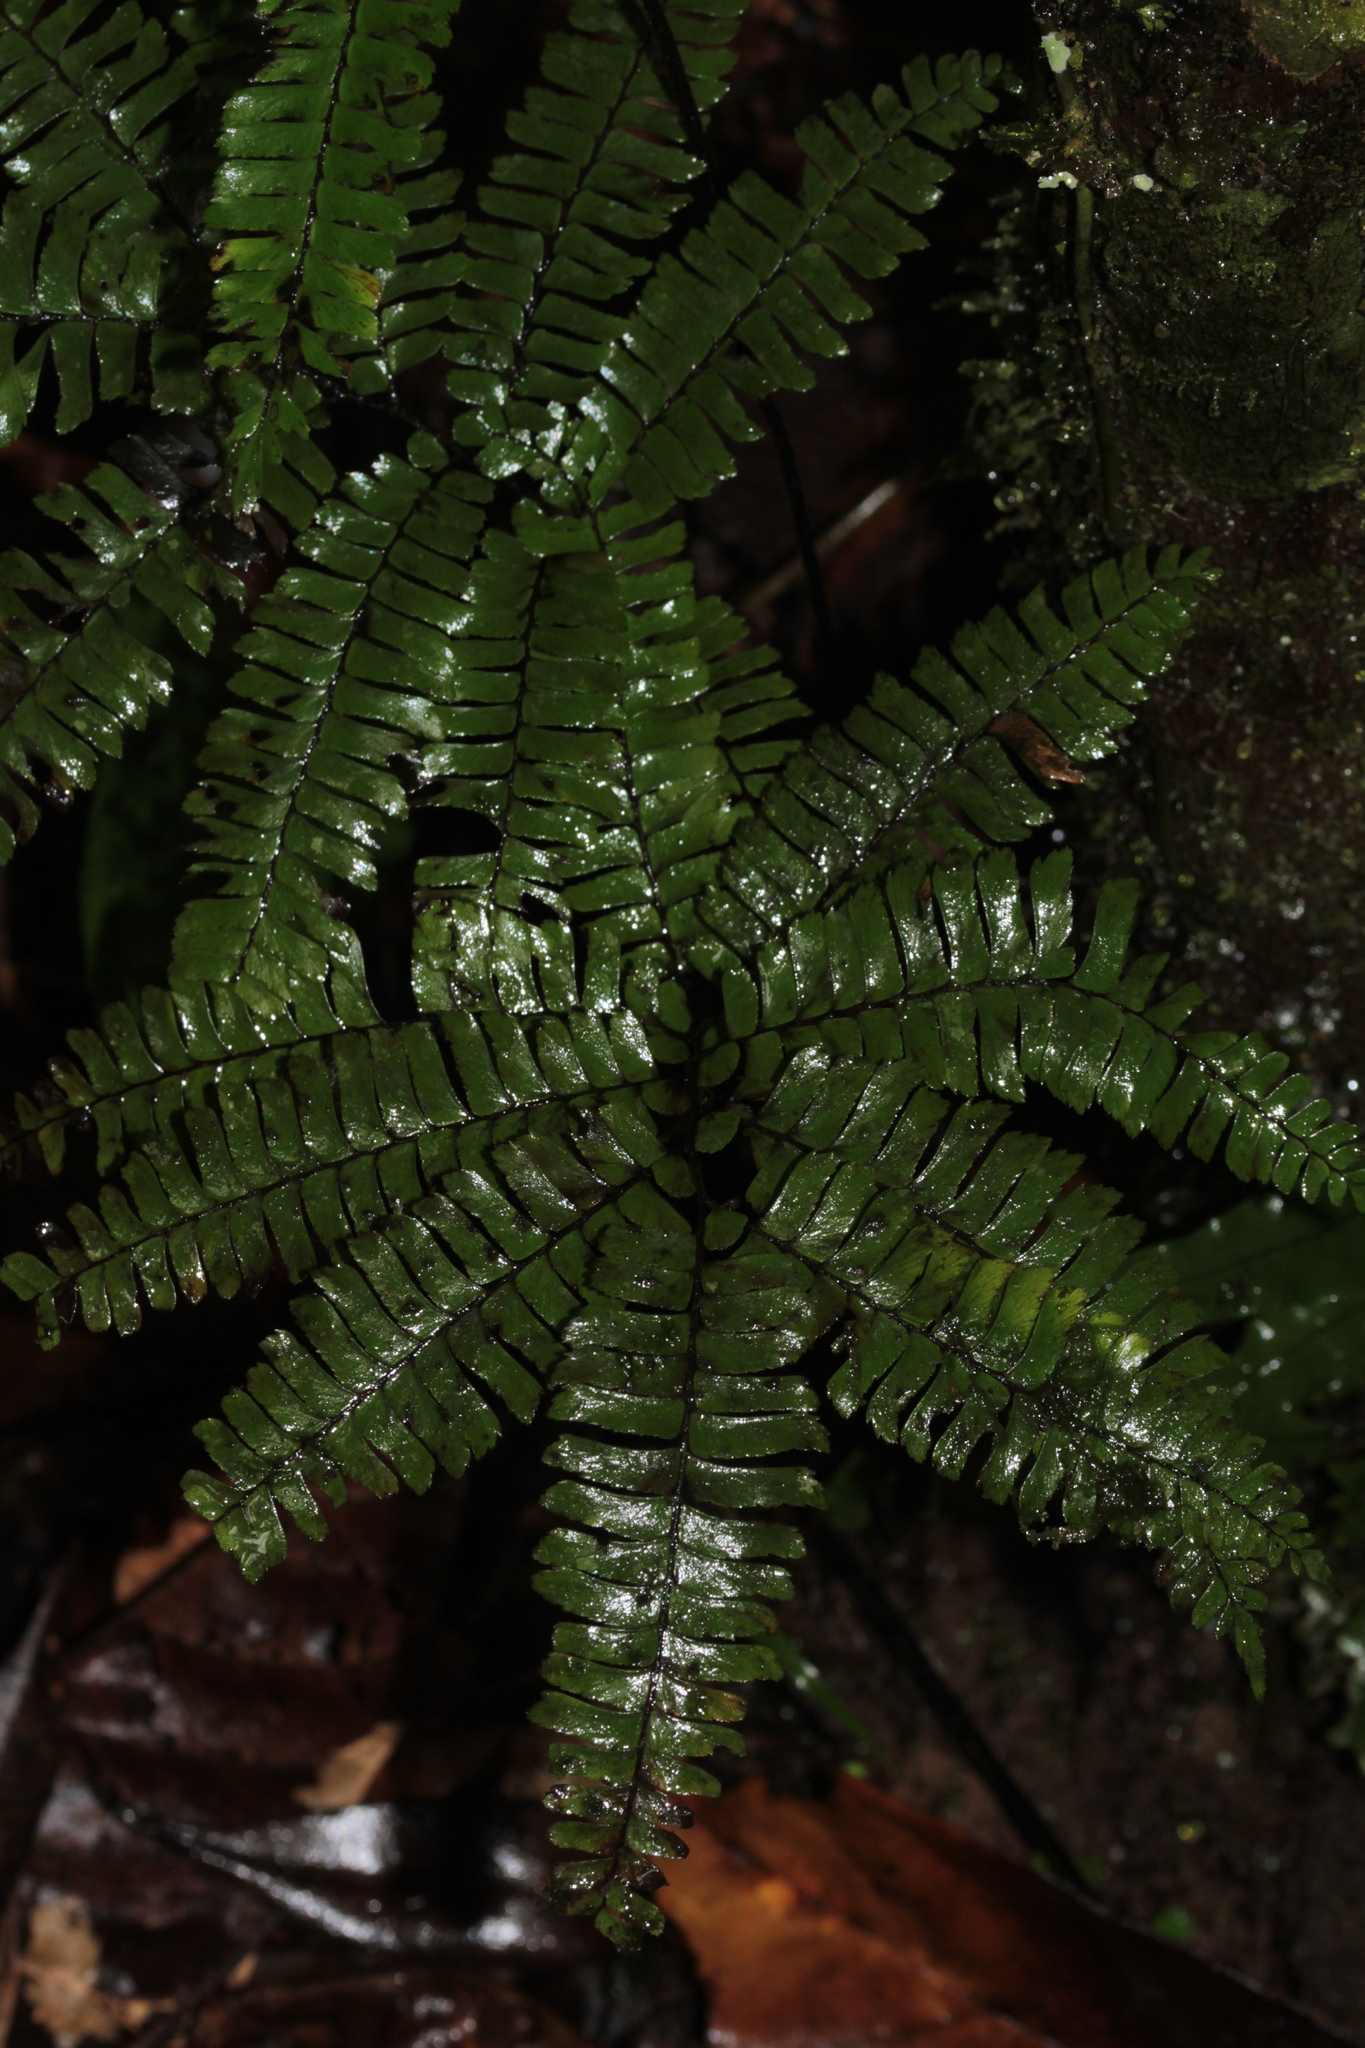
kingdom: Plantae
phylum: Tracheophyta
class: Polypodiopsida
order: Polypodiales
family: Pteridaceae
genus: Adiantum
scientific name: Adiantum
